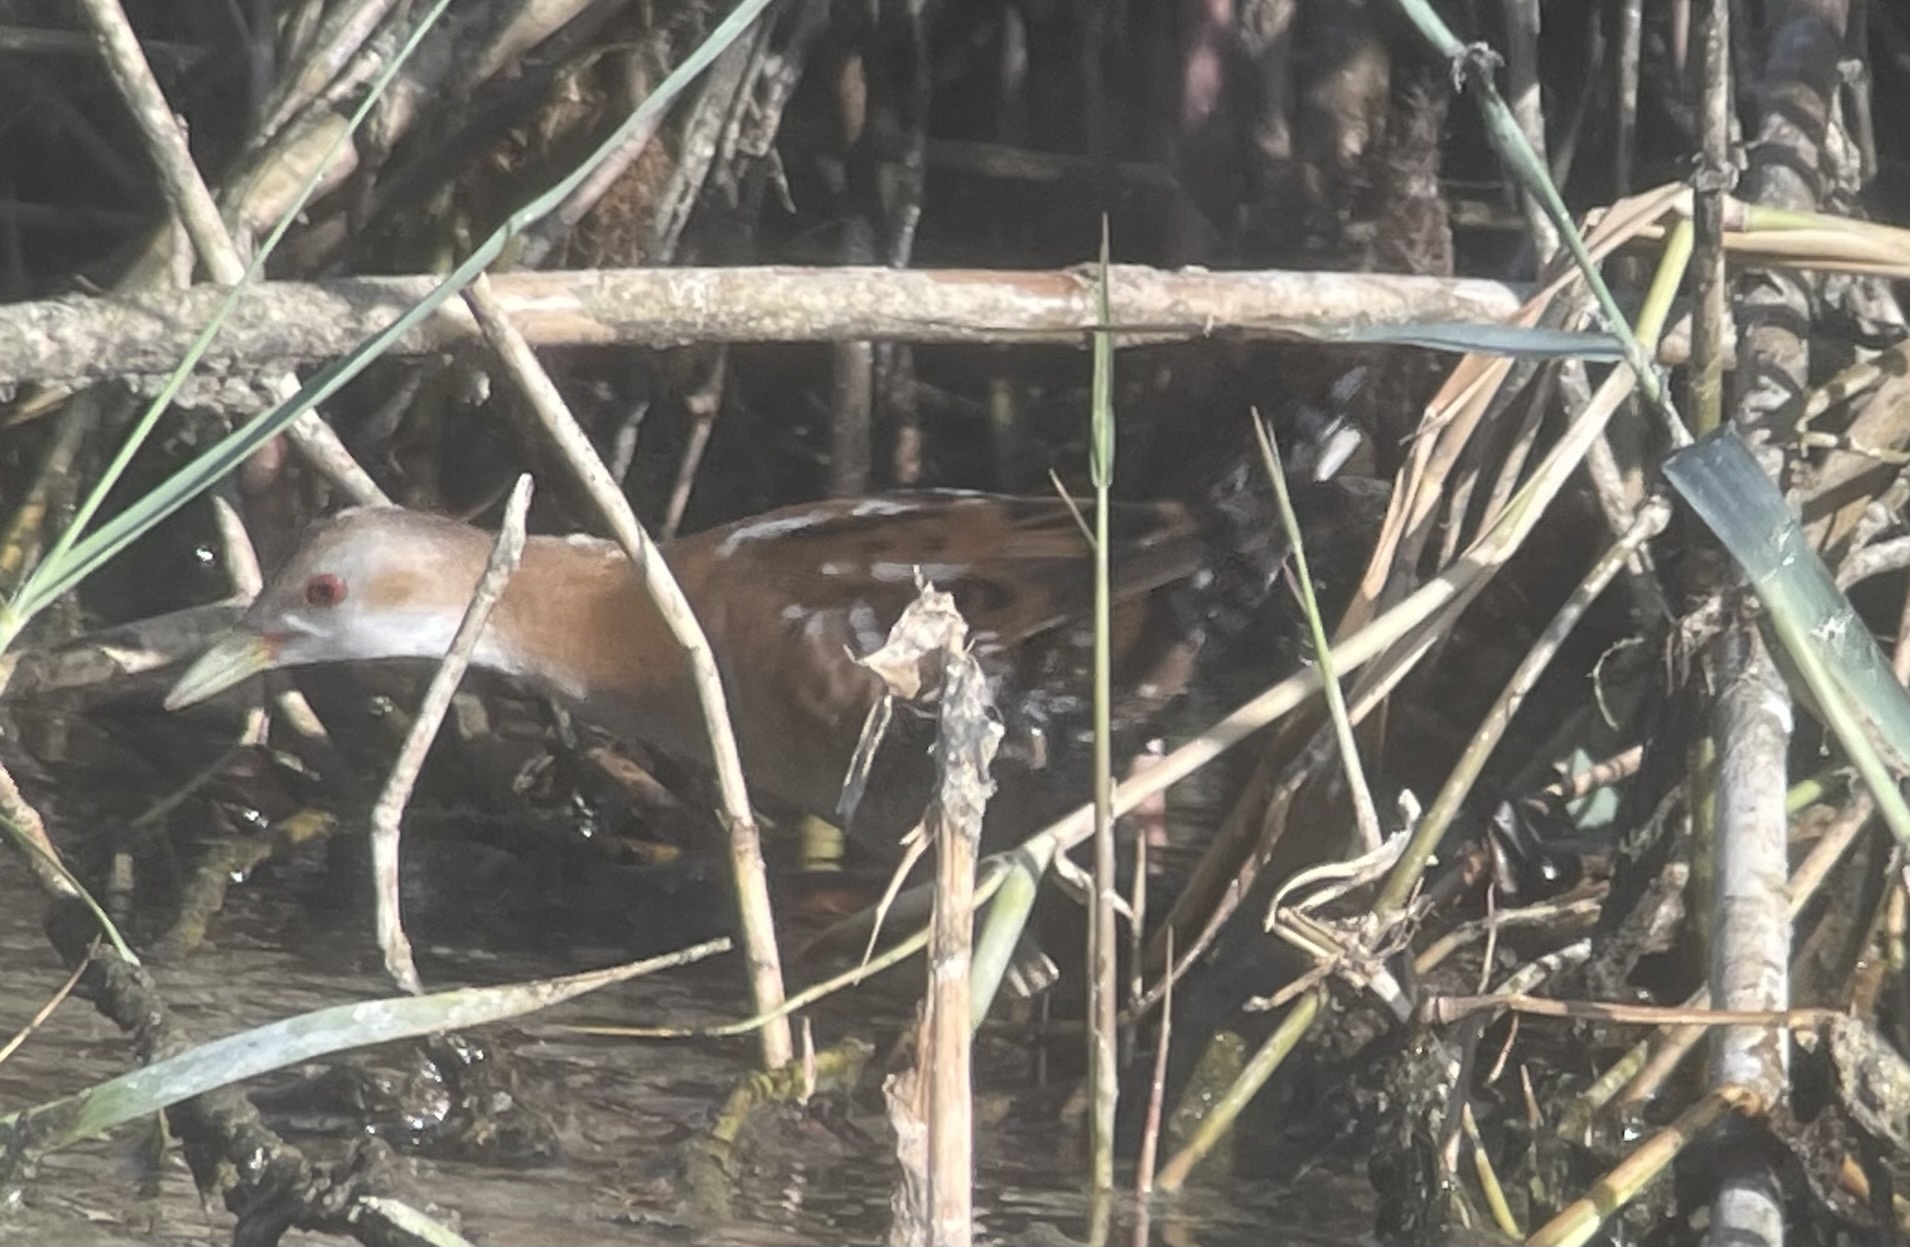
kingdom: Animalia
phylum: Chordata
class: Aves
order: Gruiformes
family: Rallidae
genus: Porzana
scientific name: Porzana parva
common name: Little crake
